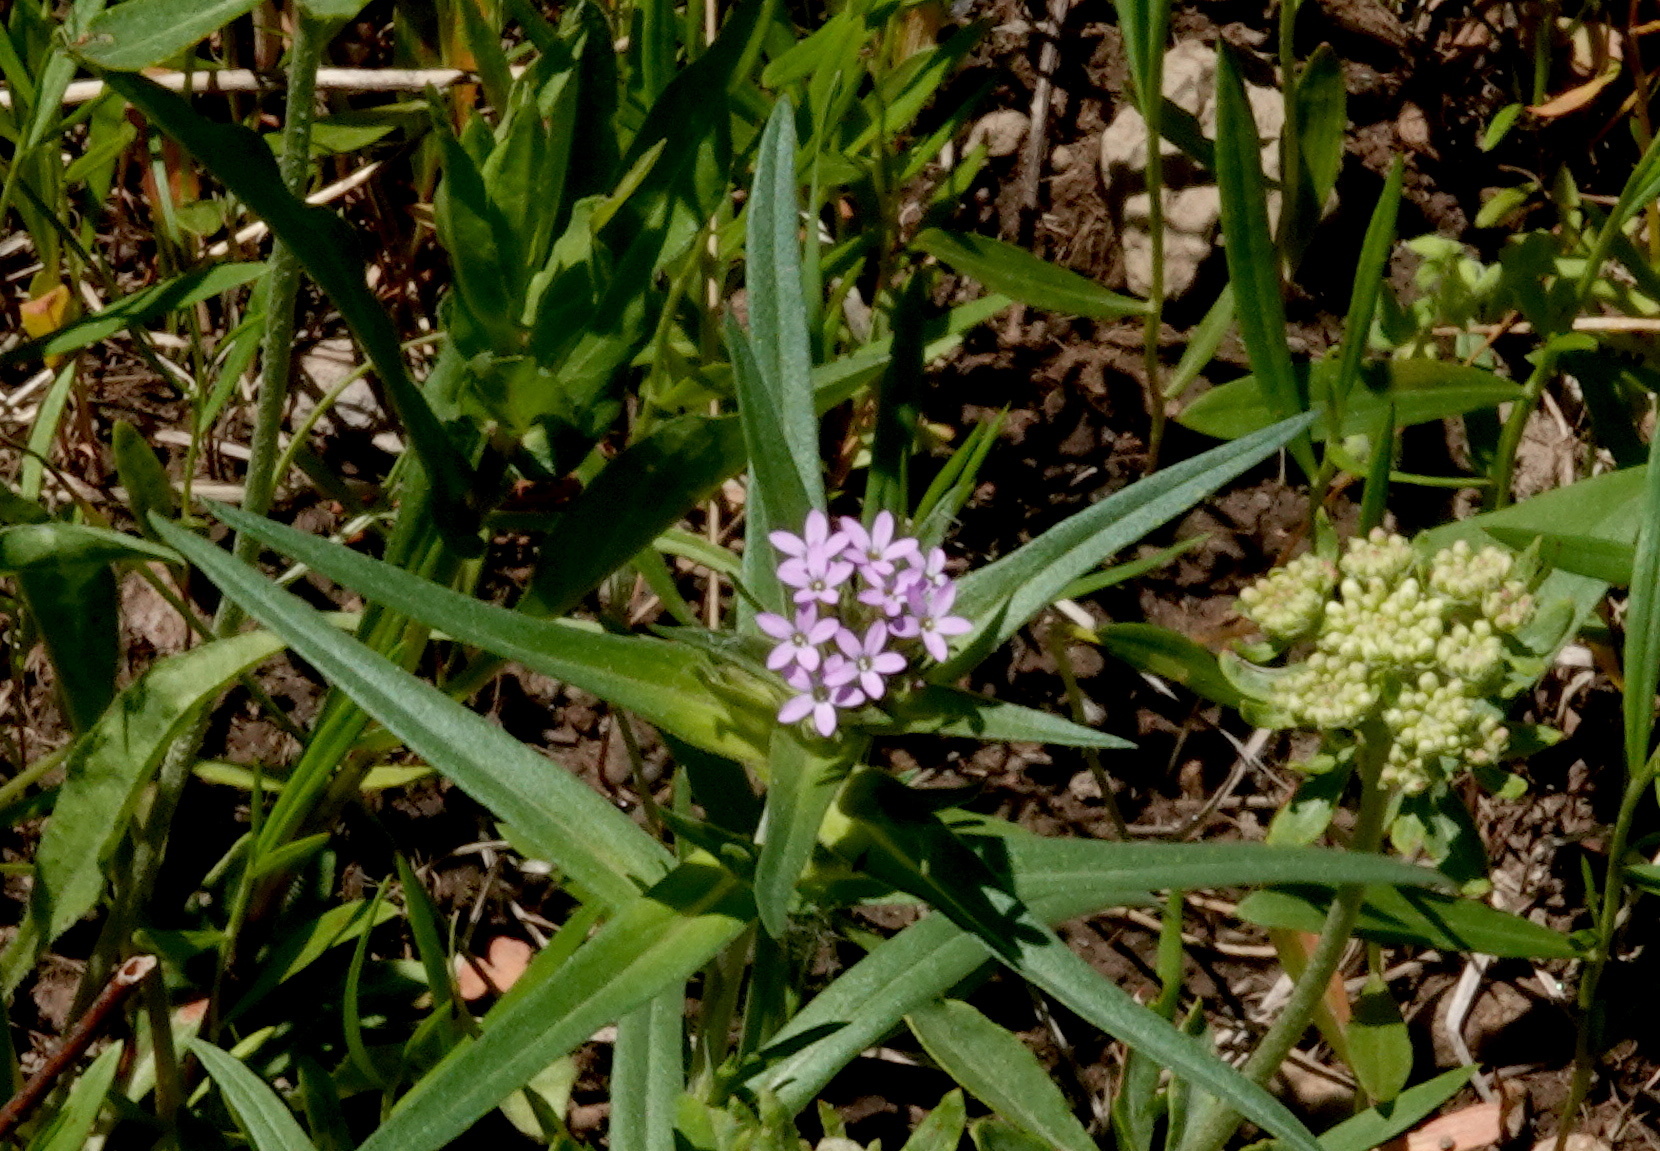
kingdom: Plantae
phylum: Tracheophyta
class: Magnoliopsida
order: Ericales
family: Polemoniaceae
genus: Collomia
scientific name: Collomia linearis
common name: Tiny trumpet
